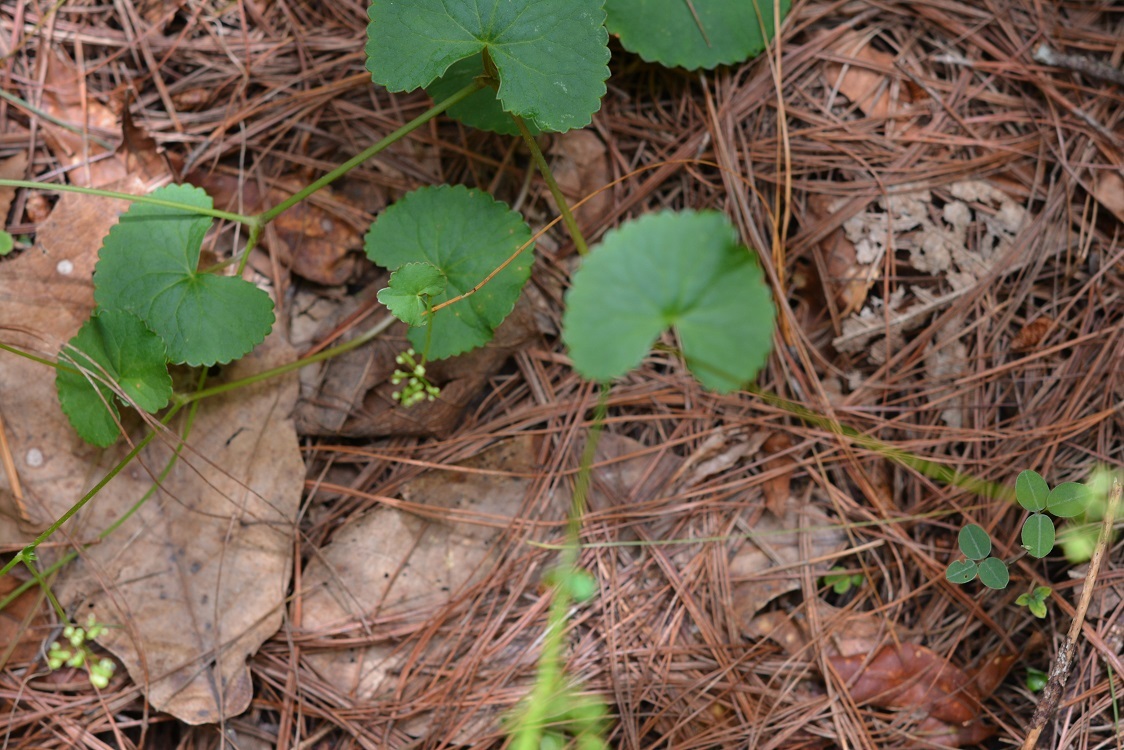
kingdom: Plantae
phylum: Tracheophyta
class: Magnoliopsida
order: Apiales
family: Apiaceae
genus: Micropleura
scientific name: Micropleura renifolia
